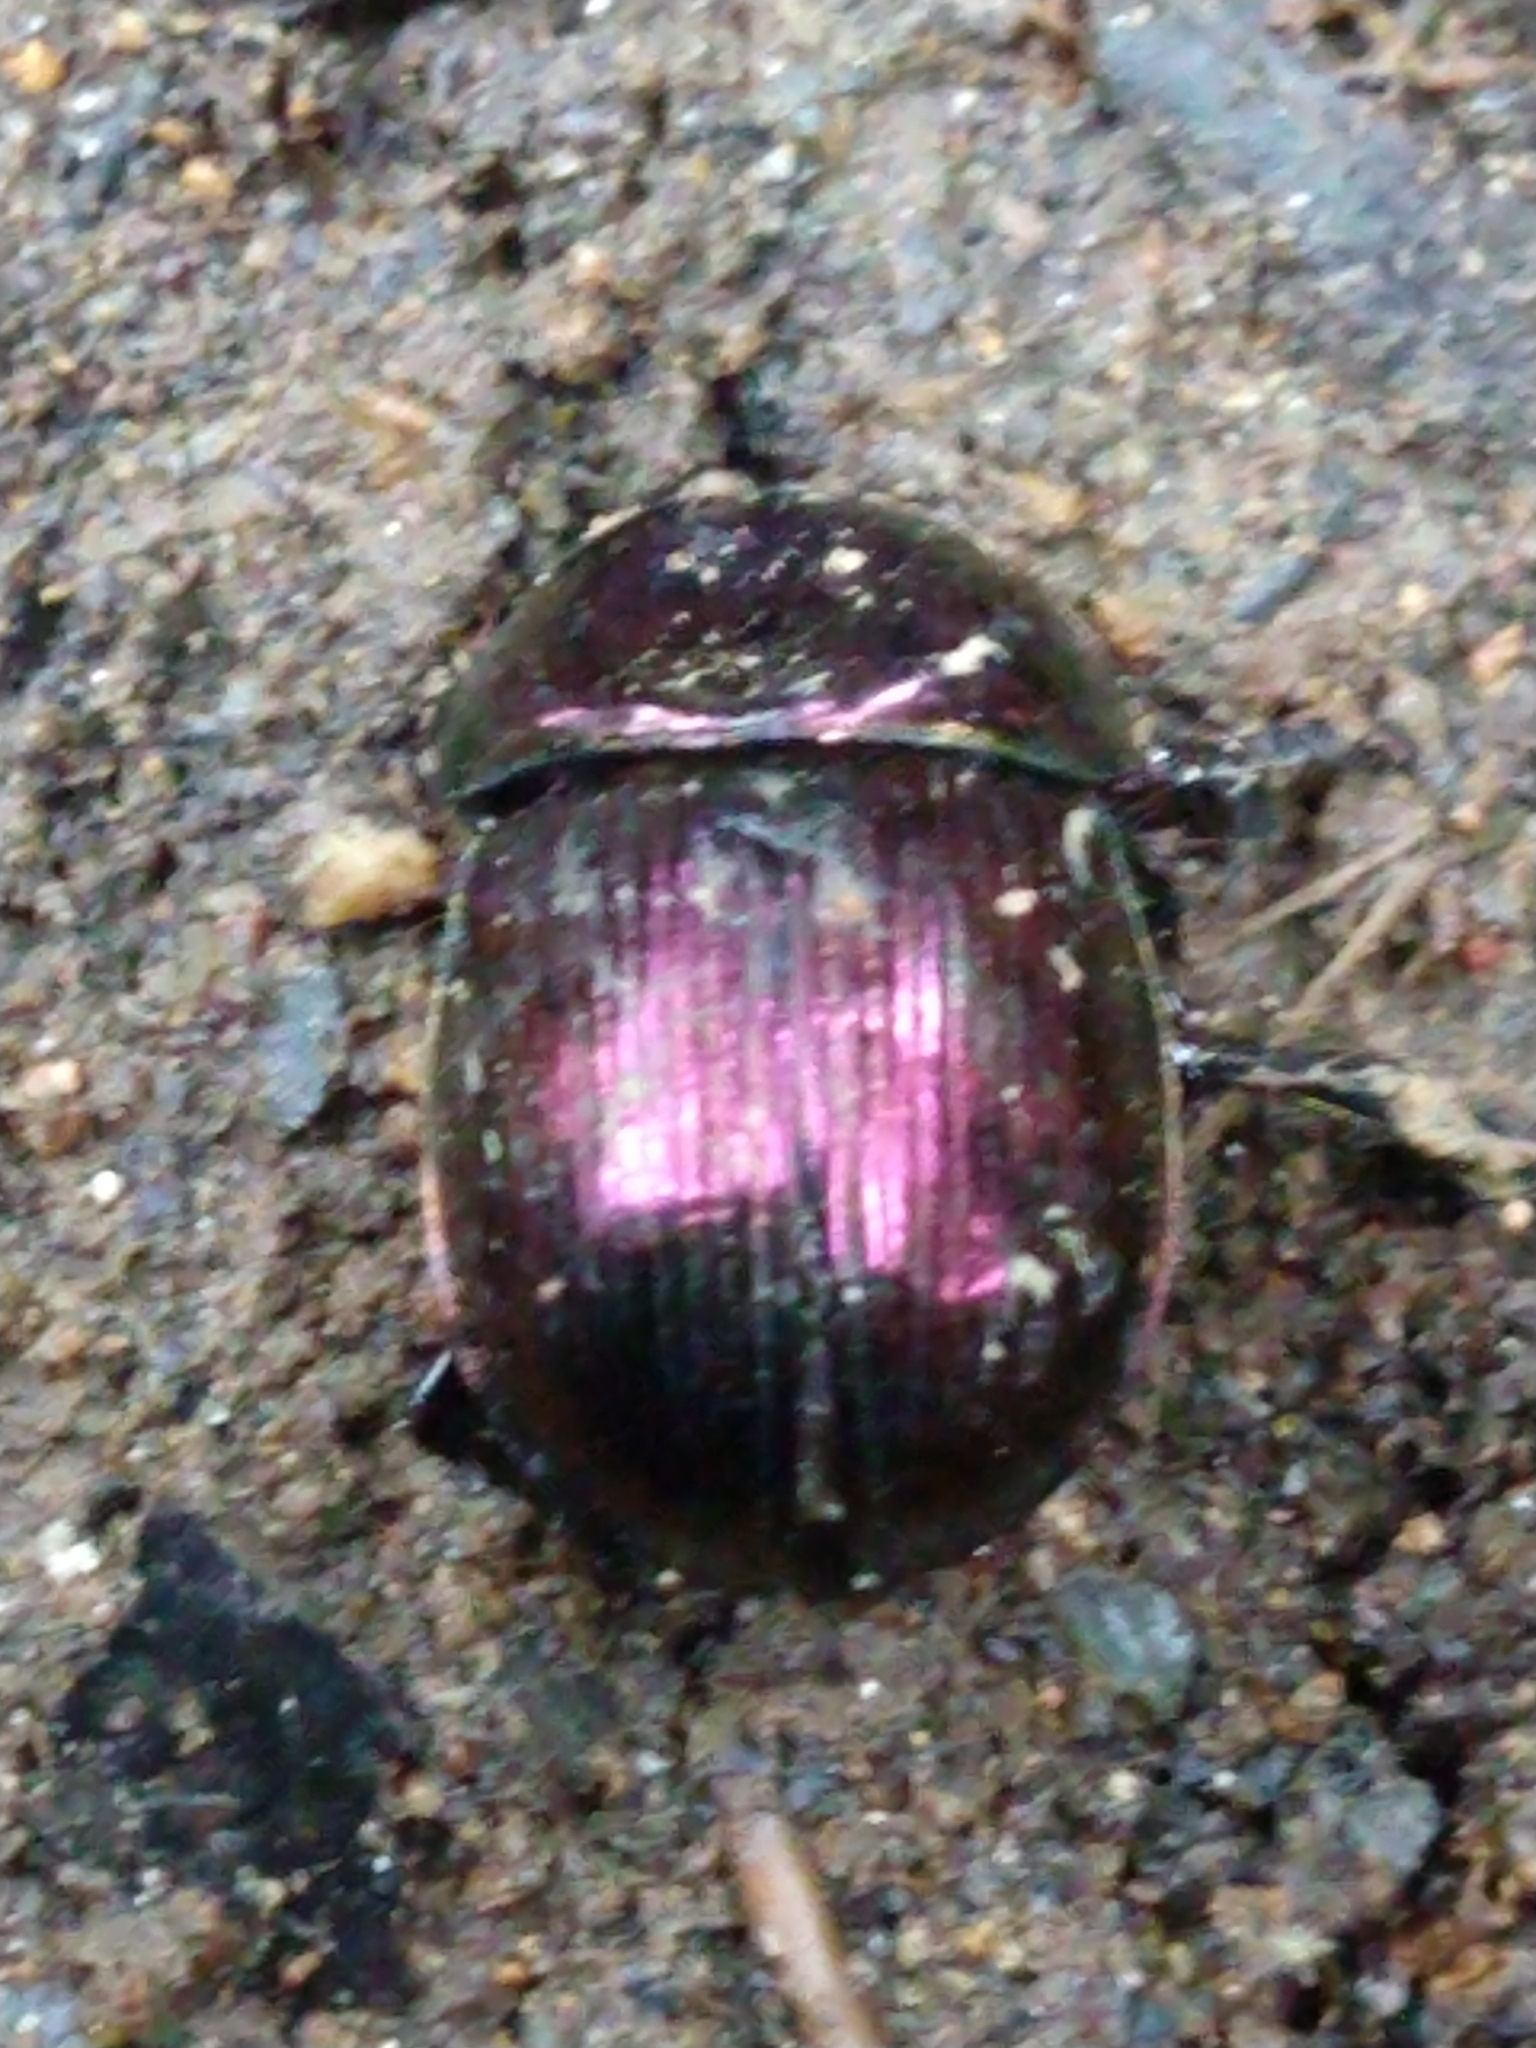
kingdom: Animalia
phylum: Arthropoda
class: Insecta
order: Coleoptera
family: Geotrupidae
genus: Phelotrupes
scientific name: Phelotrupes laevistriatus
